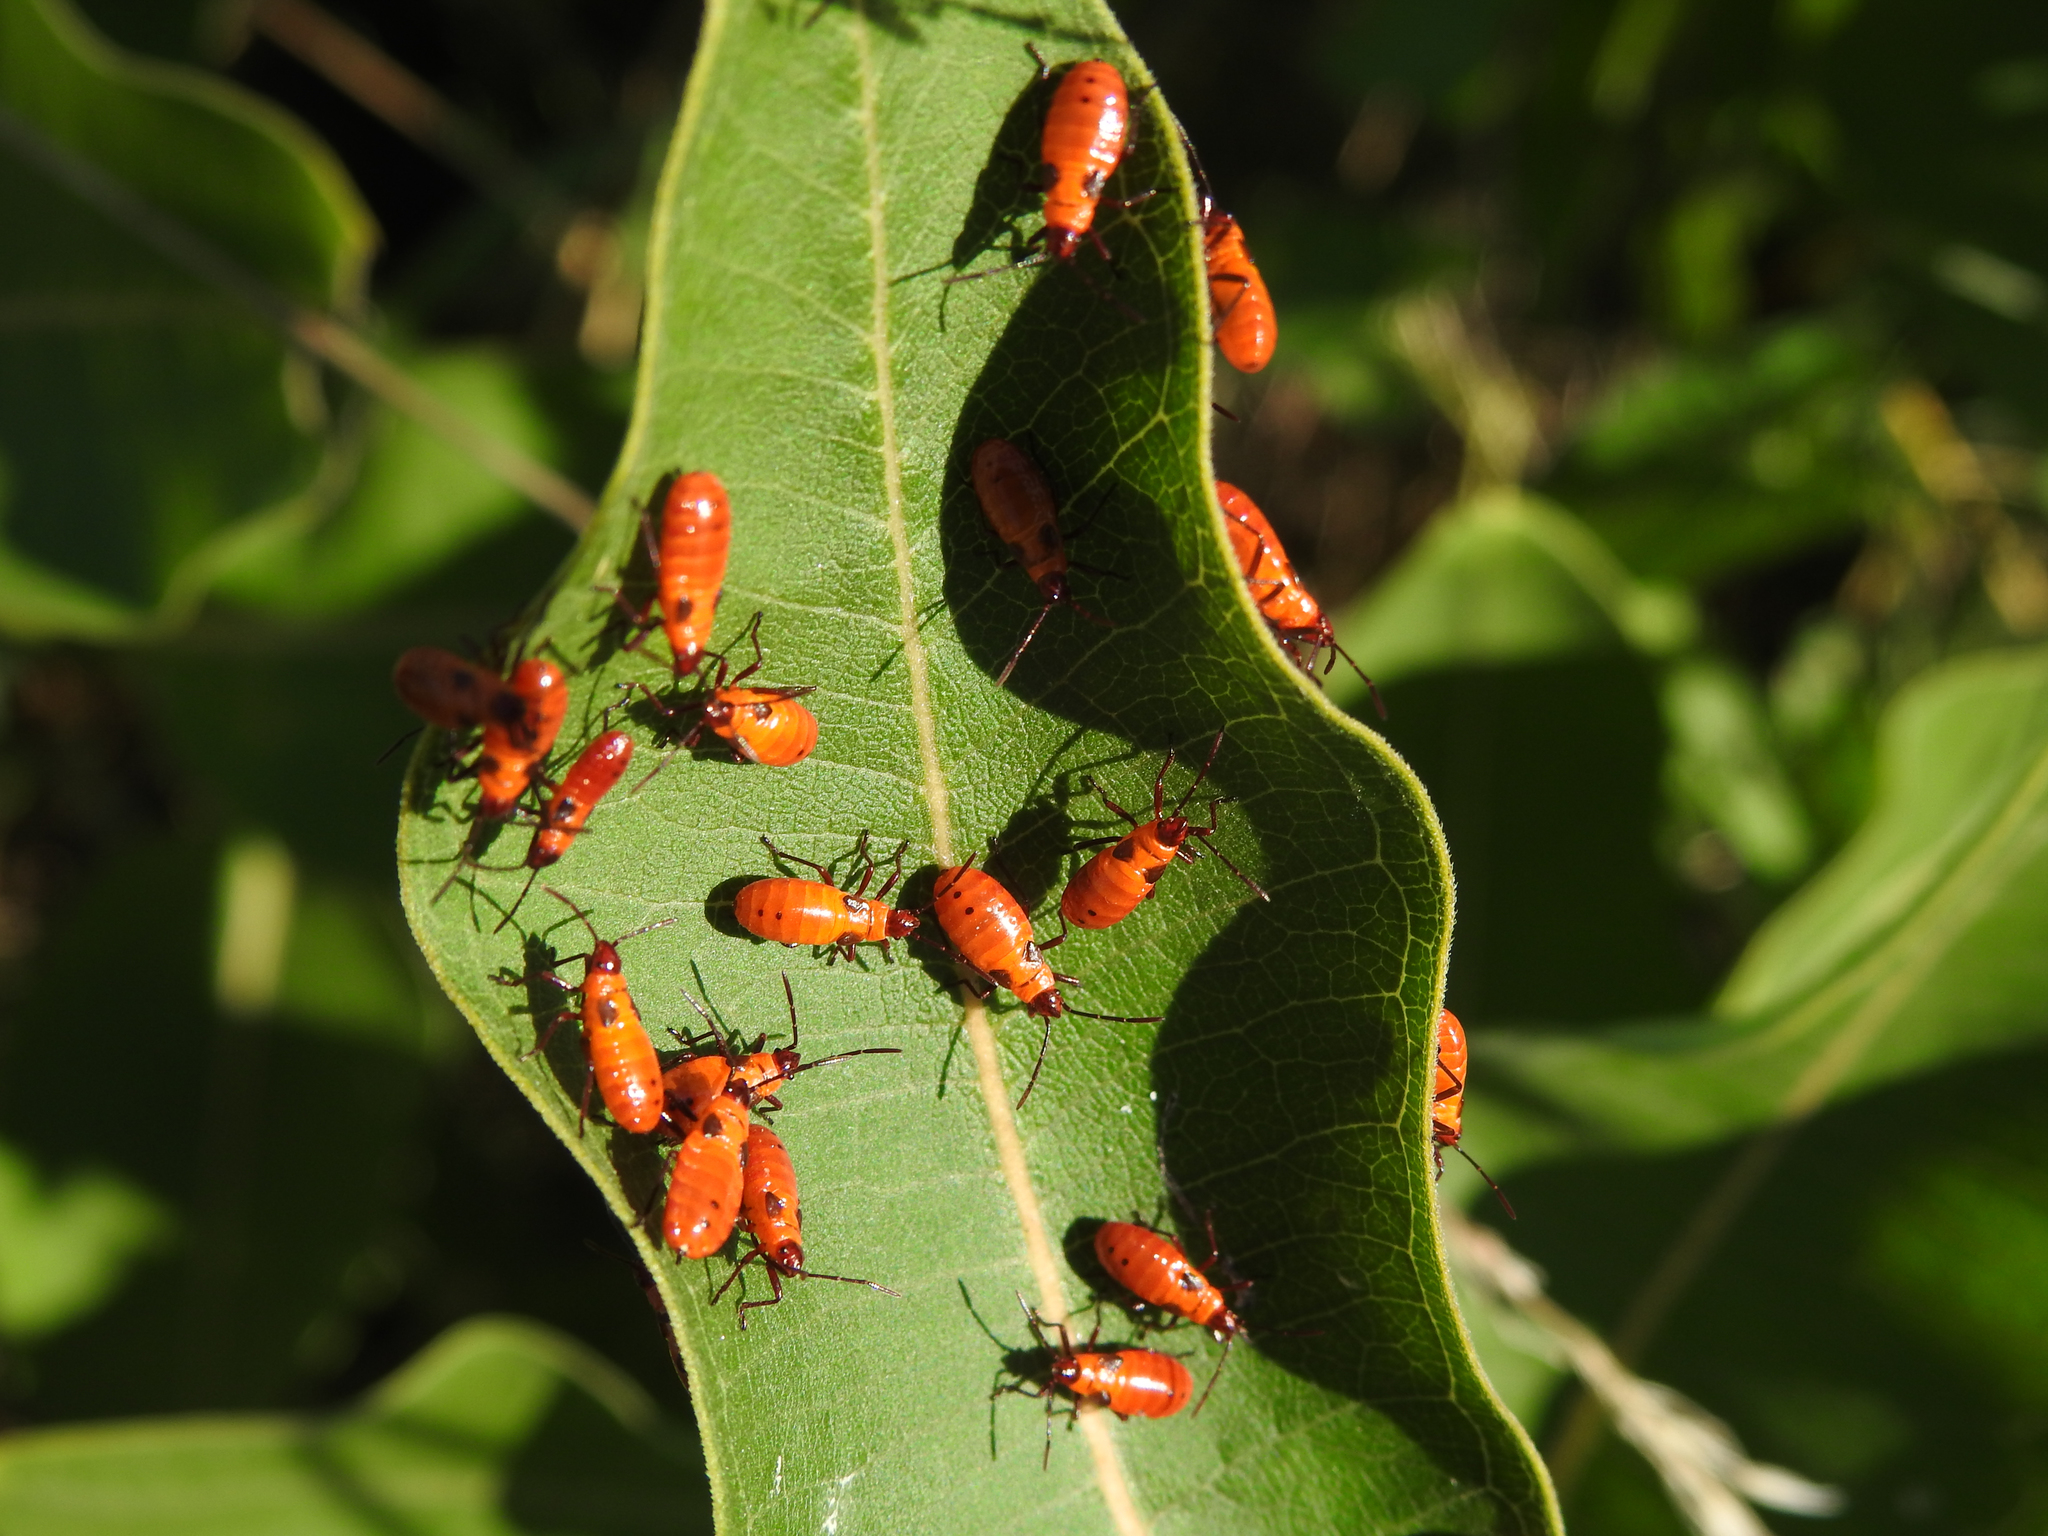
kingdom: Animalia
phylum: Arthropoda
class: Insecta
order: Hemiptera
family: Lygaeidae
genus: Oncopeltus
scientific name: Oncopeltus fasciatus
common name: Large milkweed bug
